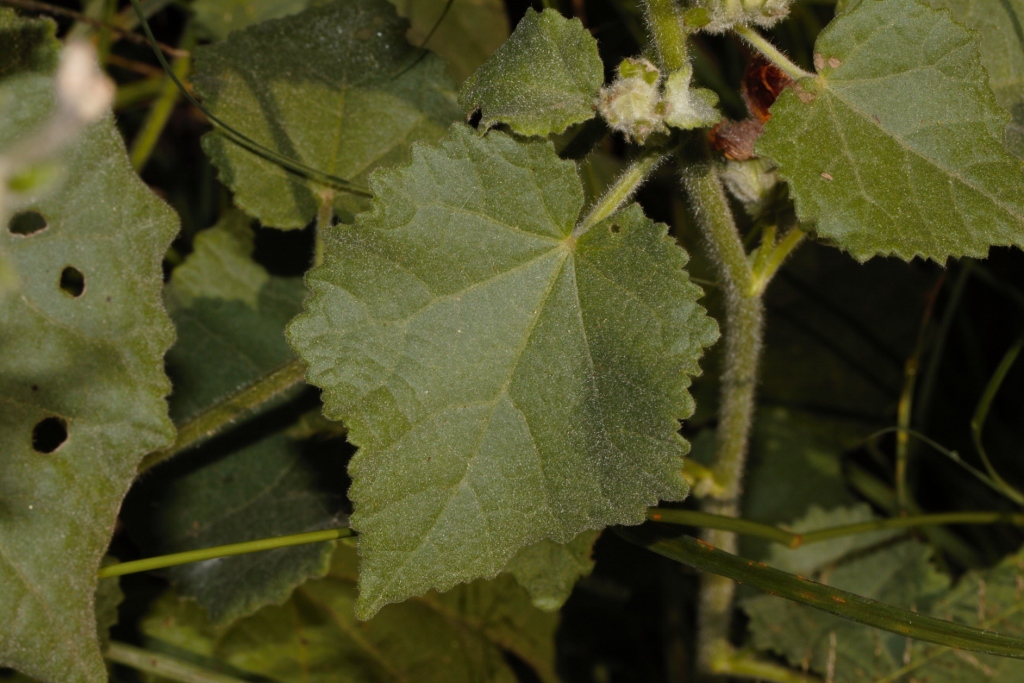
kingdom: Plantae
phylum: Tracheophyta
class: Magnoliopsida
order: Malvales
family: Malvaceae
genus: Hibiscus
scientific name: Hibiscus panduriformis
